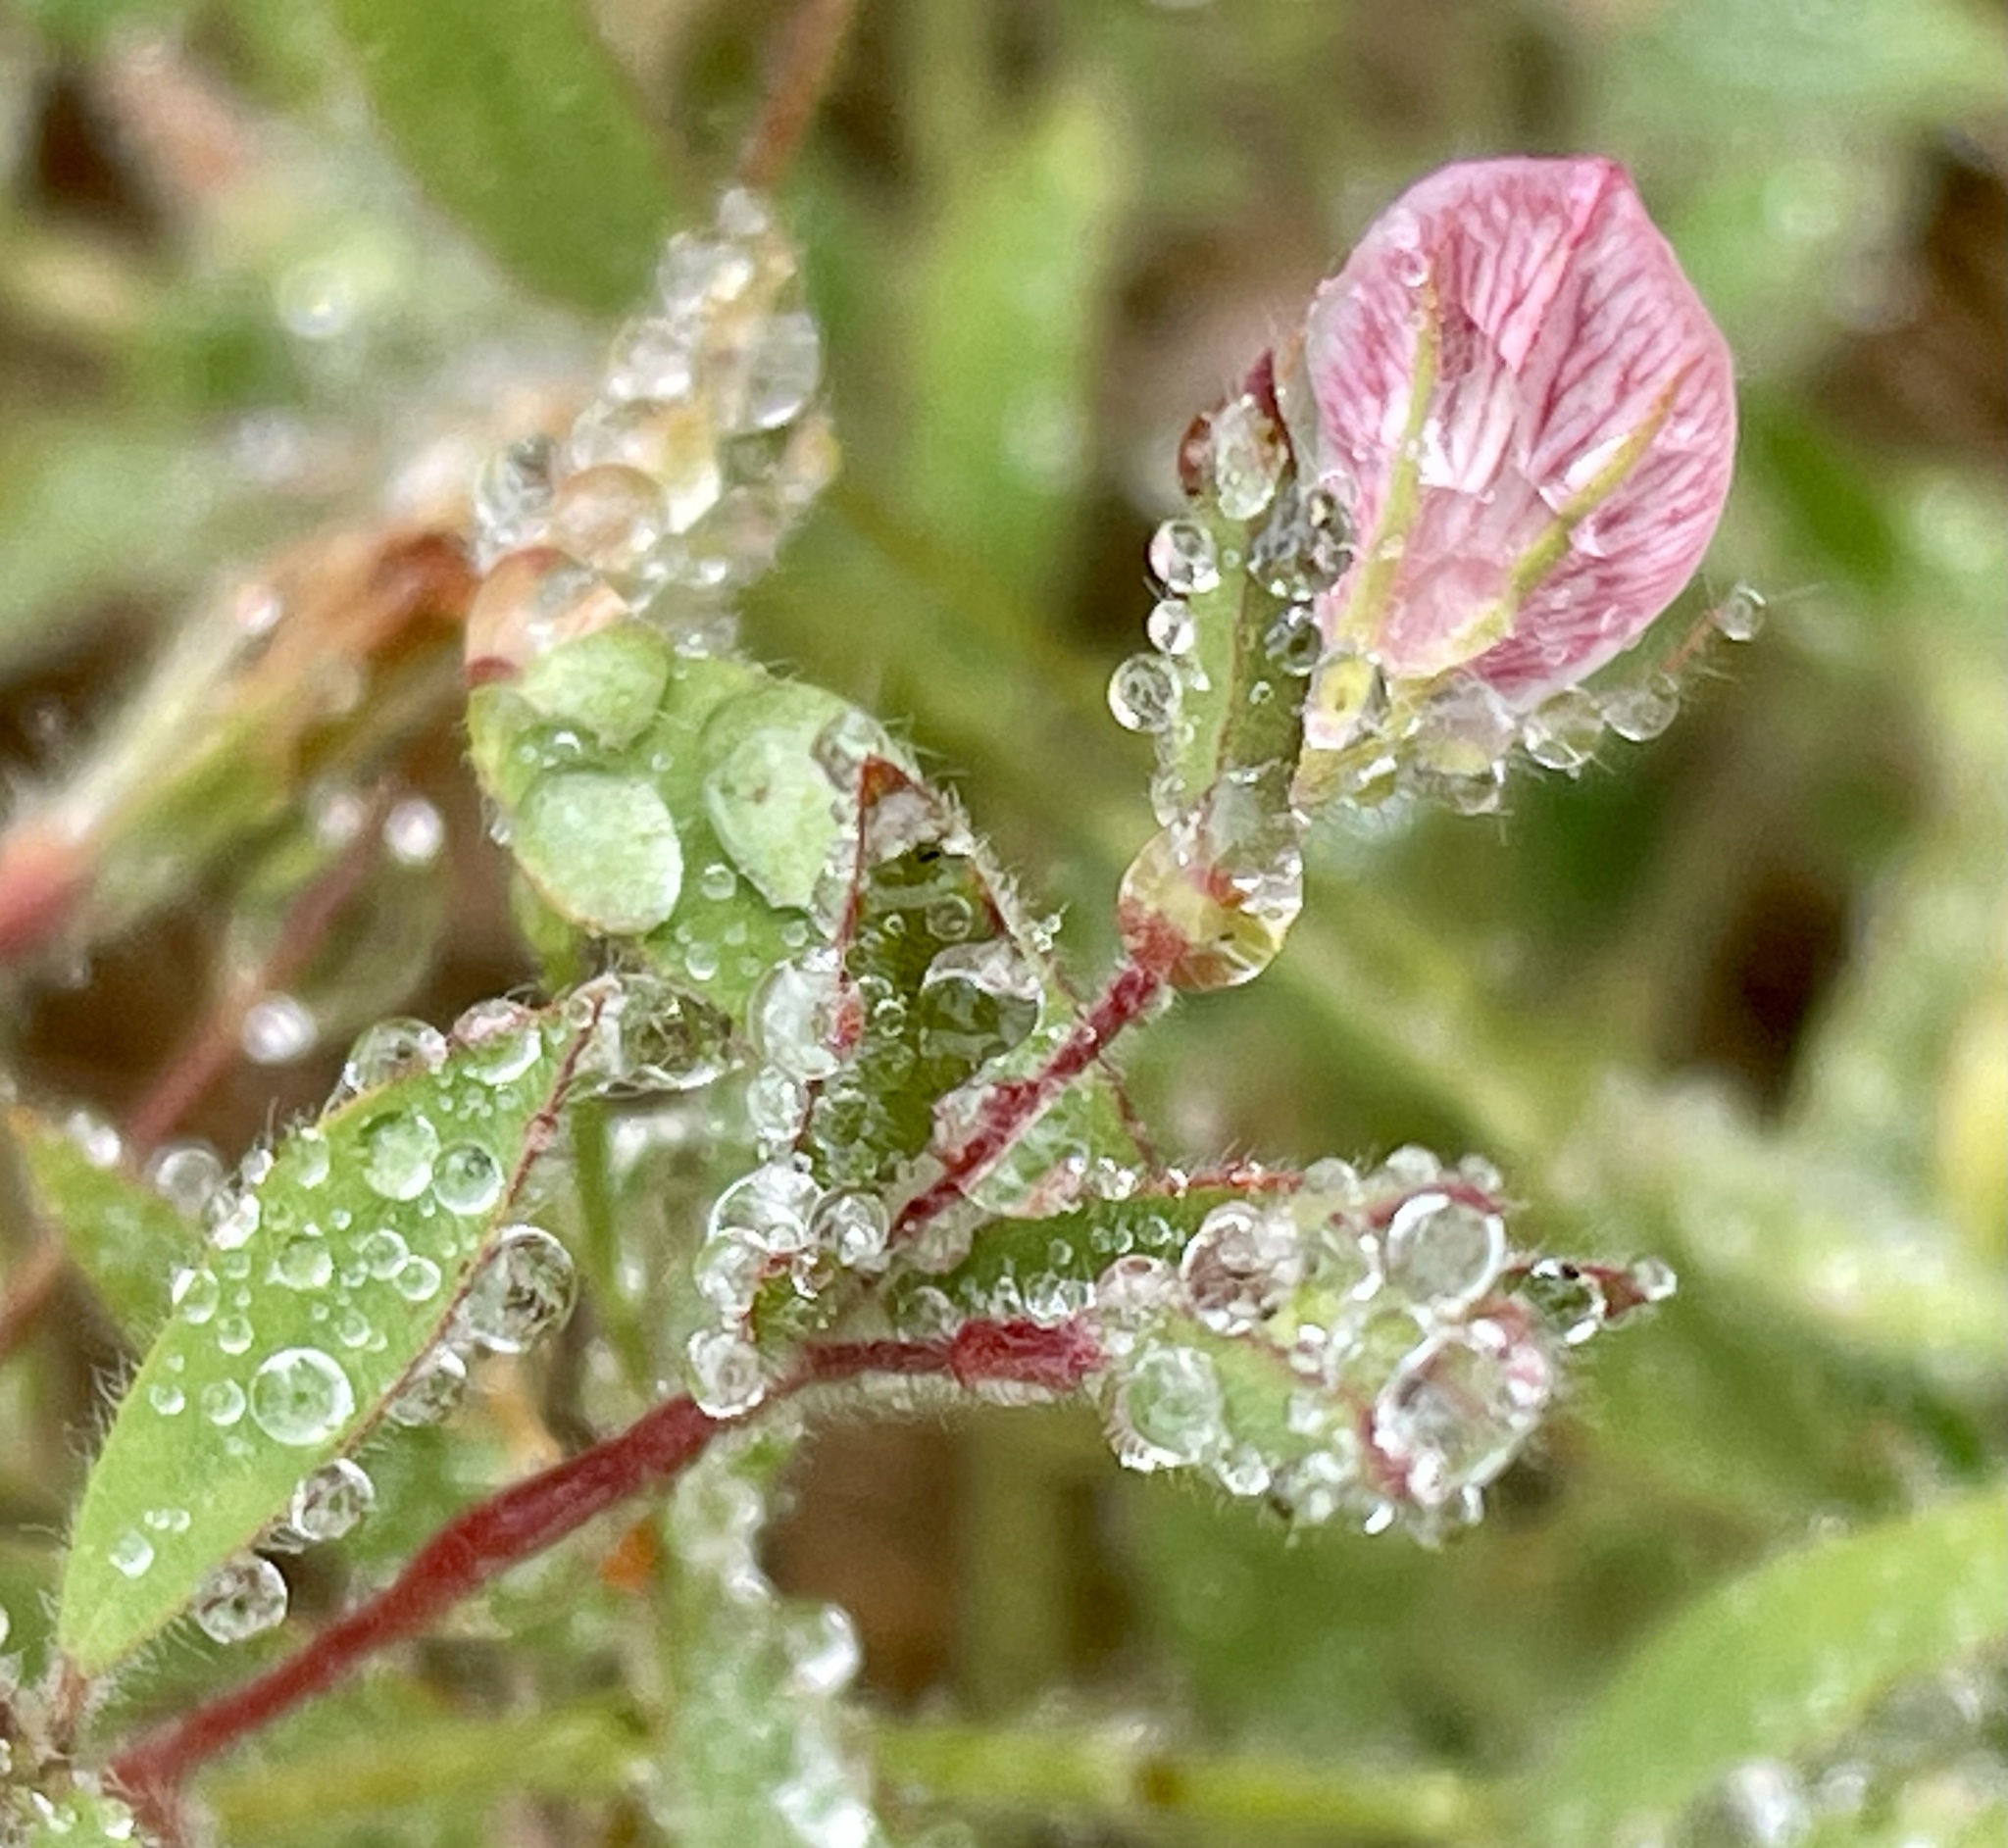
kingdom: Plantae
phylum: Tracheophyta
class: Magnoliopsida
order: Fabales
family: Fabaceae
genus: Acmispon
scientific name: Acmispon americanus
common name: American bird's-foot trefoil
